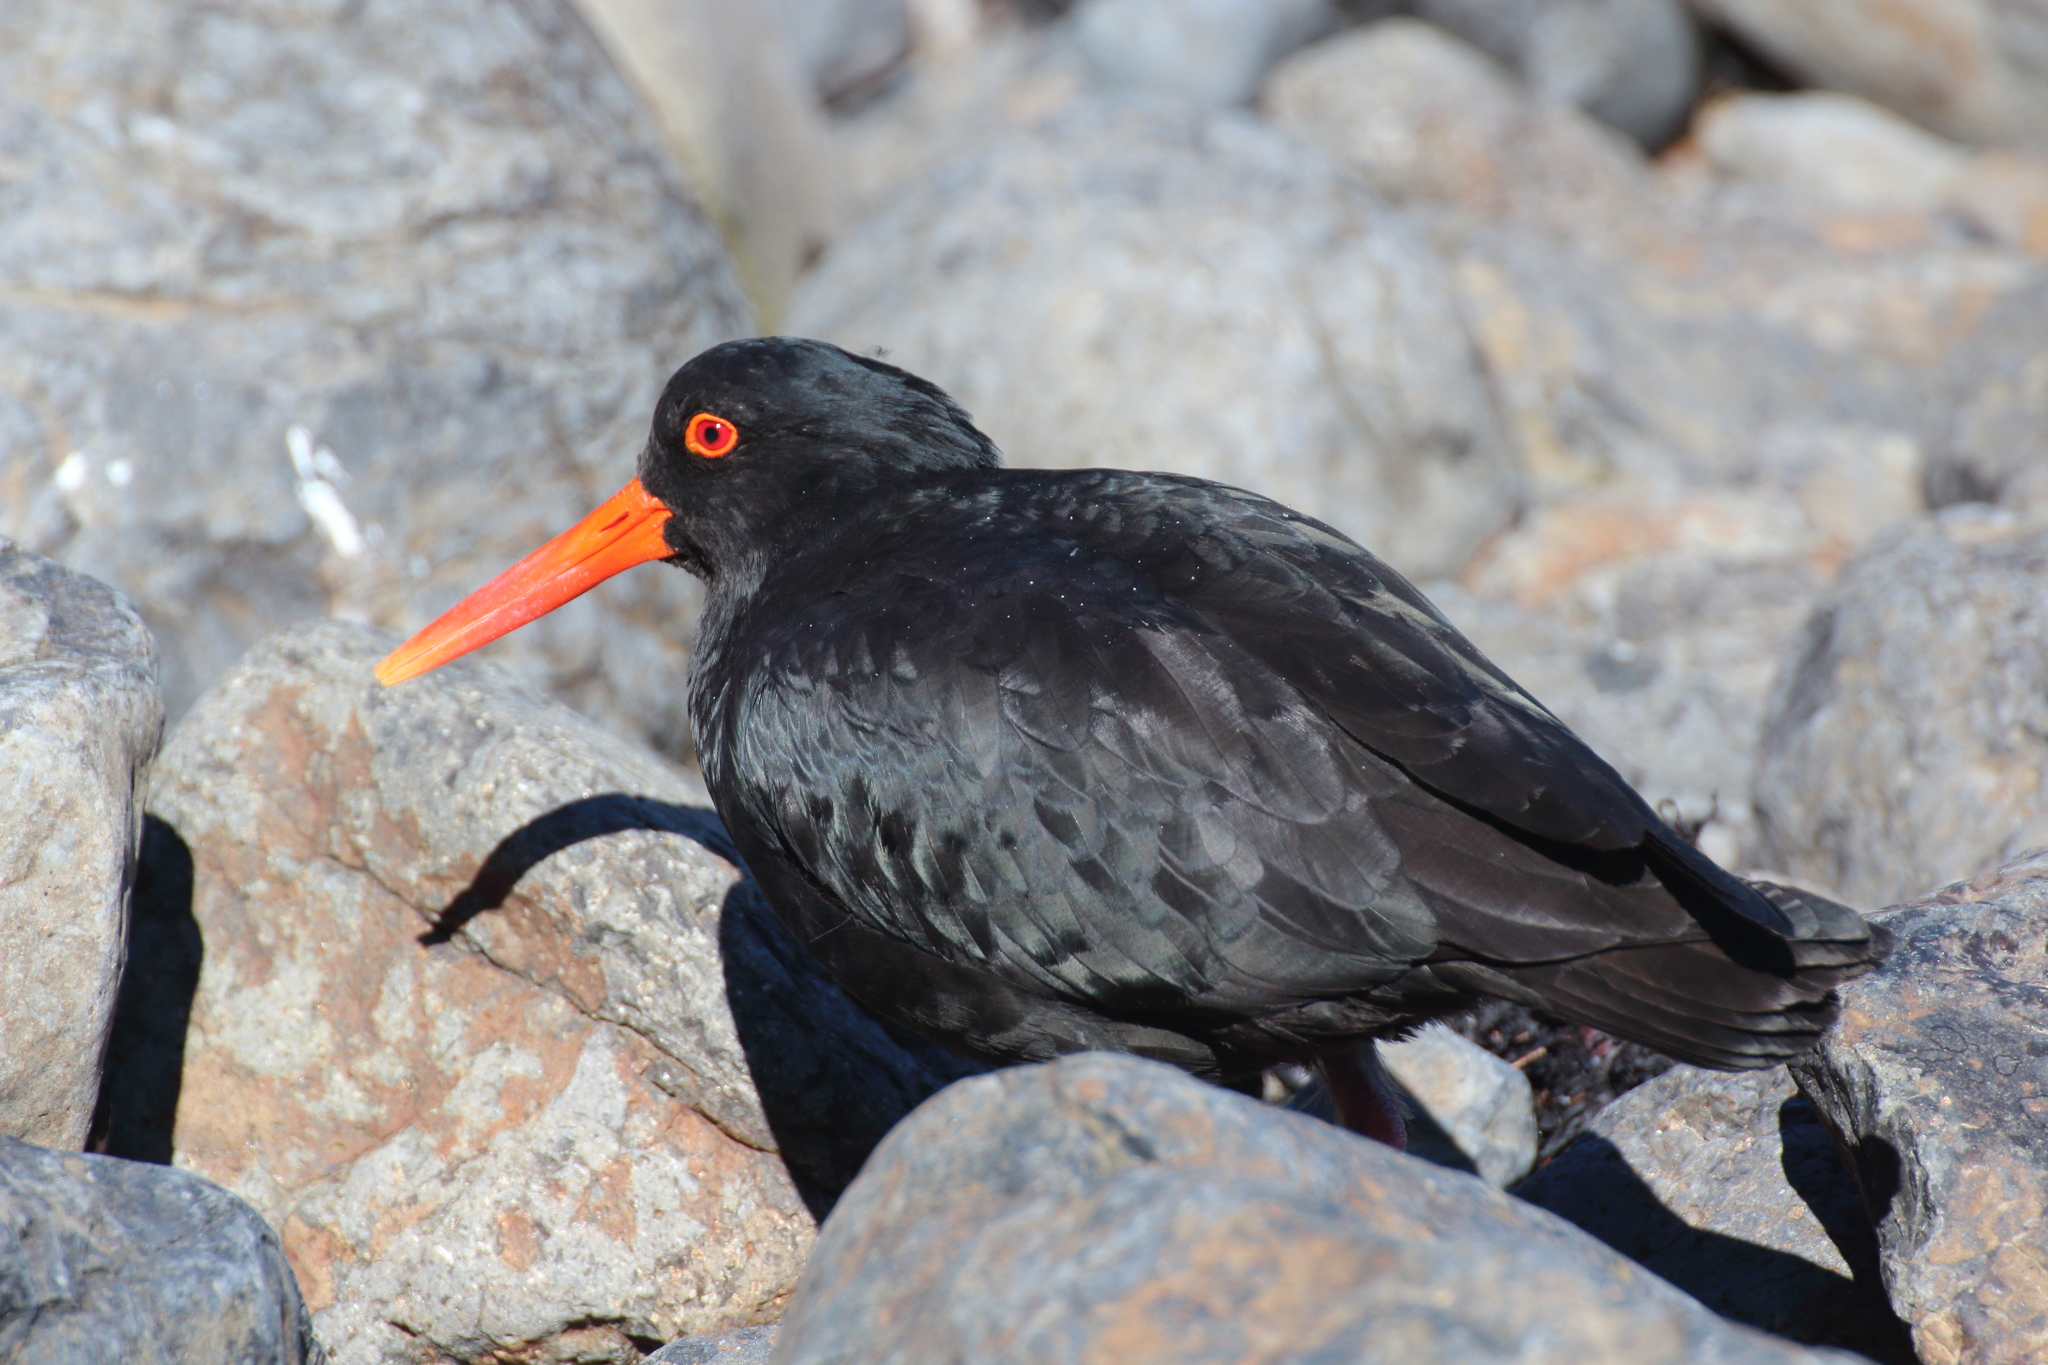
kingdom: Animalia
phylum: Chordata
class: Aves
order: Charadriiformes
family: Haematopodidae
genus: Haematopus
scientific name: Haematopus unicolor
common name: Variable oystercatcher
